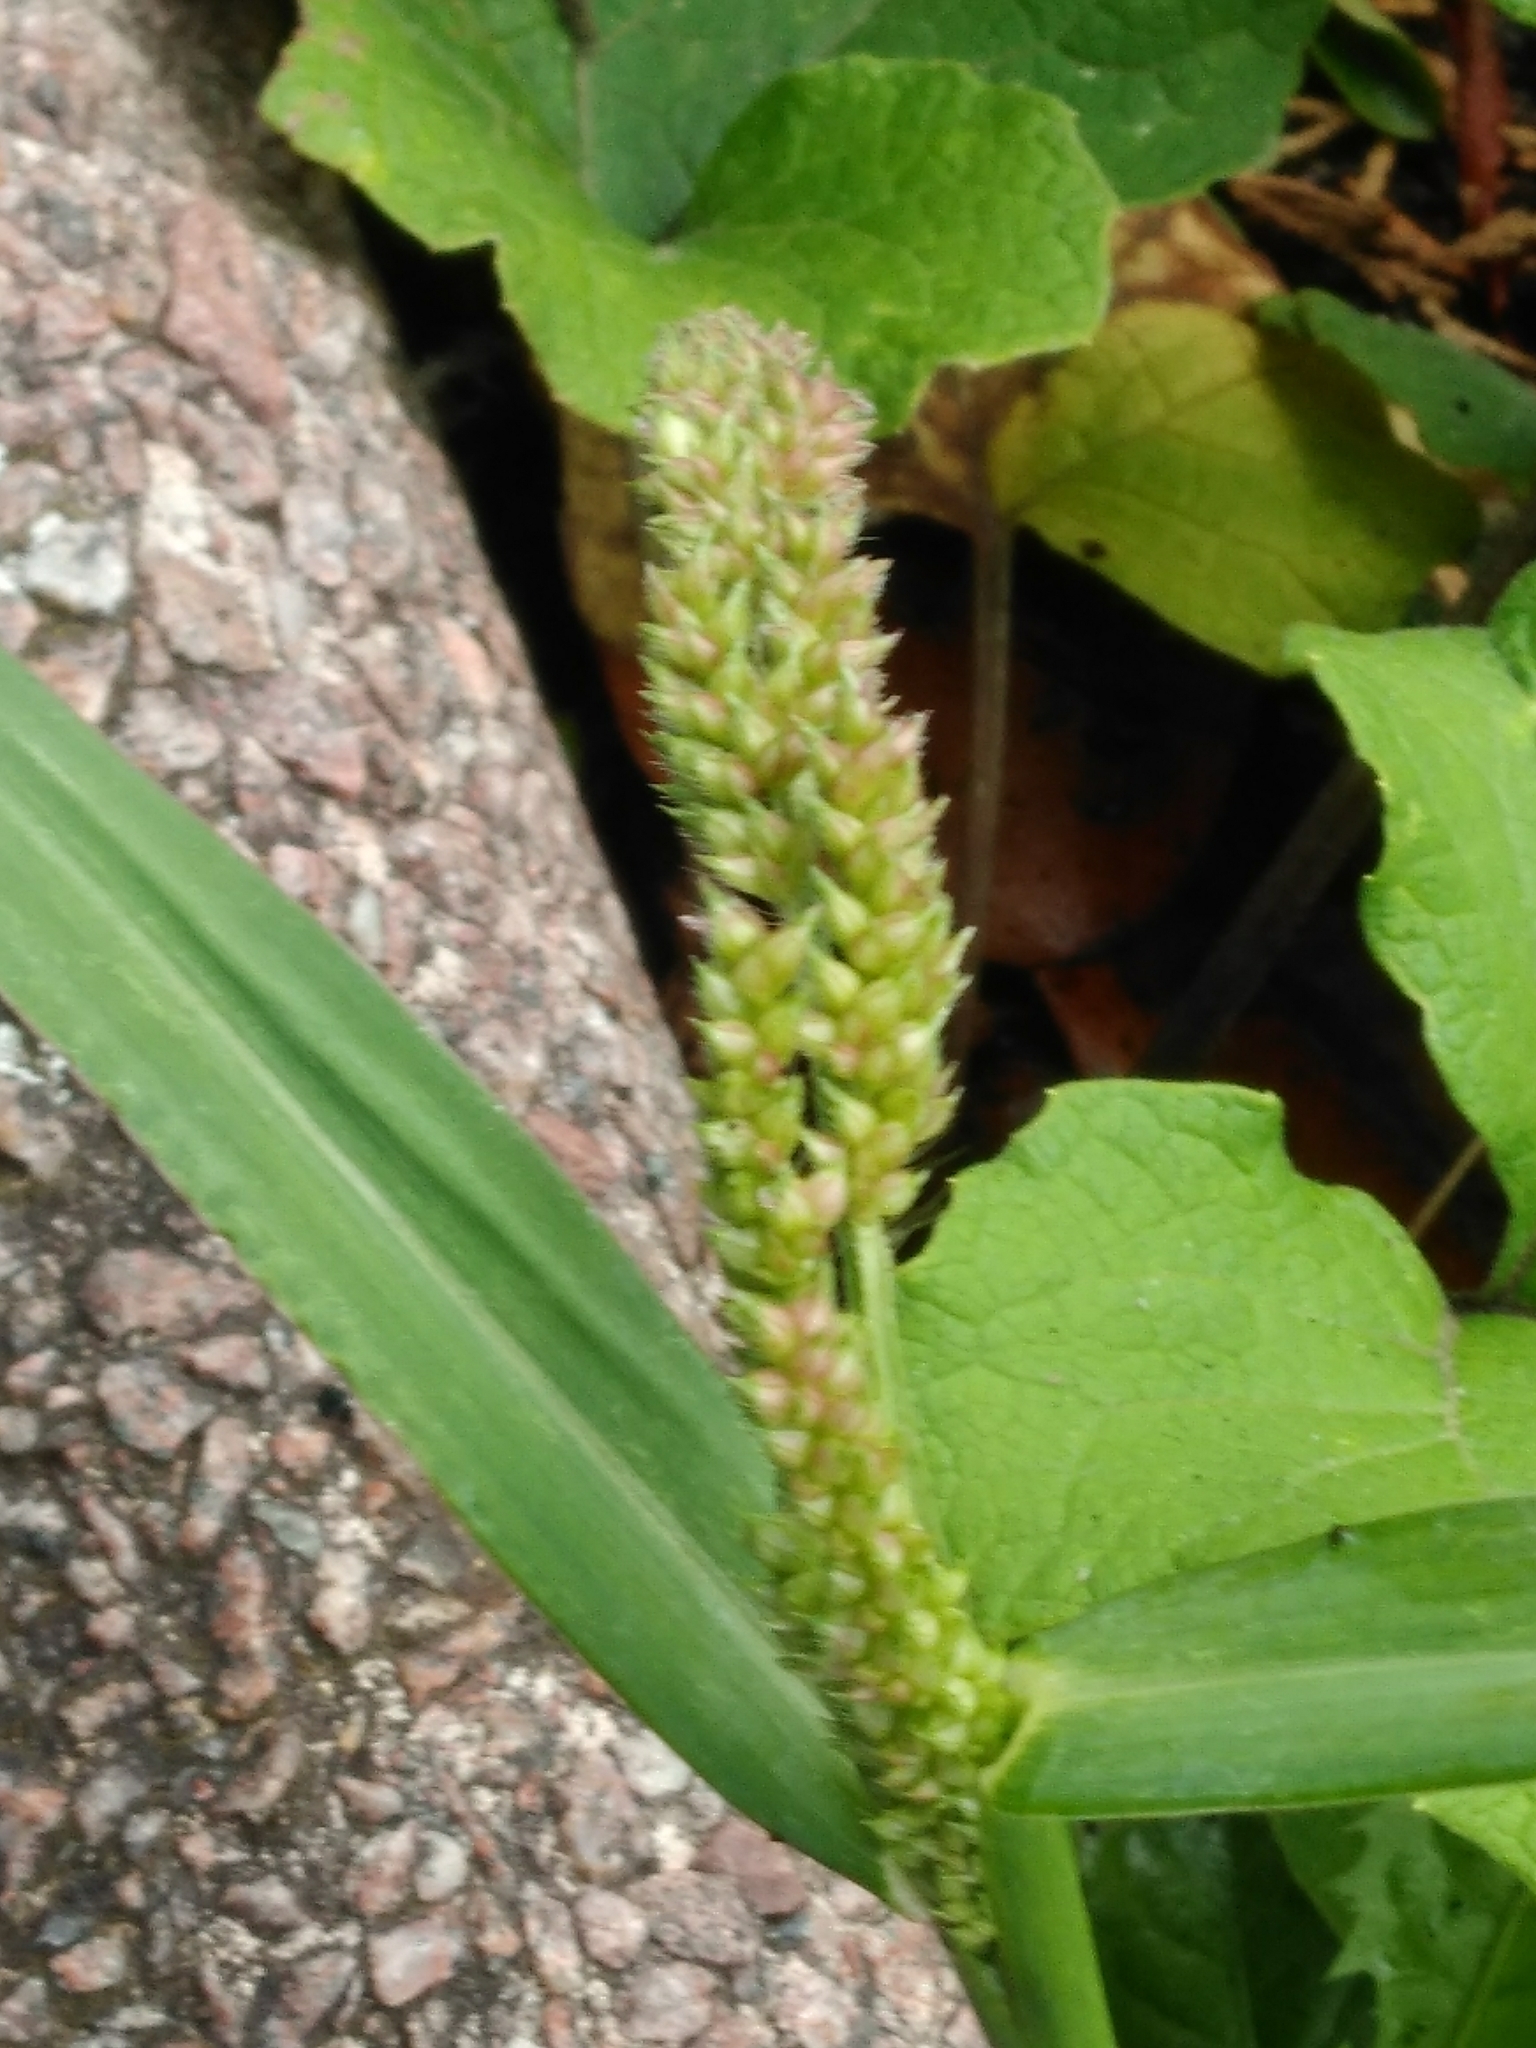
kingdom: Plantae
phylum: Tracheophyta
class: Liliopsida
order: Poales
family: Poaceae
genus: Echinochloa
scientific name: Echinochloa crus-galli
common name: Cockspur
